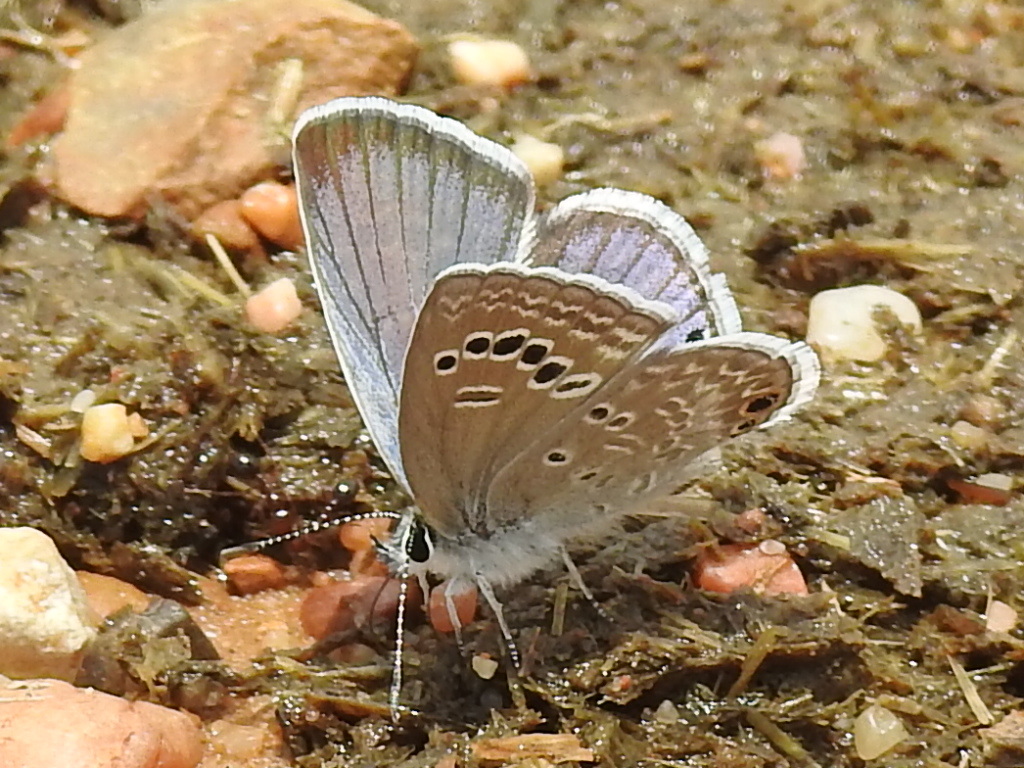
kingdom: Animalia
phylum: Arthropoda
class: Insecta
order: Lepidoptera
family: Lycaenidae
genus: Echinargus
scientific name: Echinargus isola
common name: Reakirt's blue
